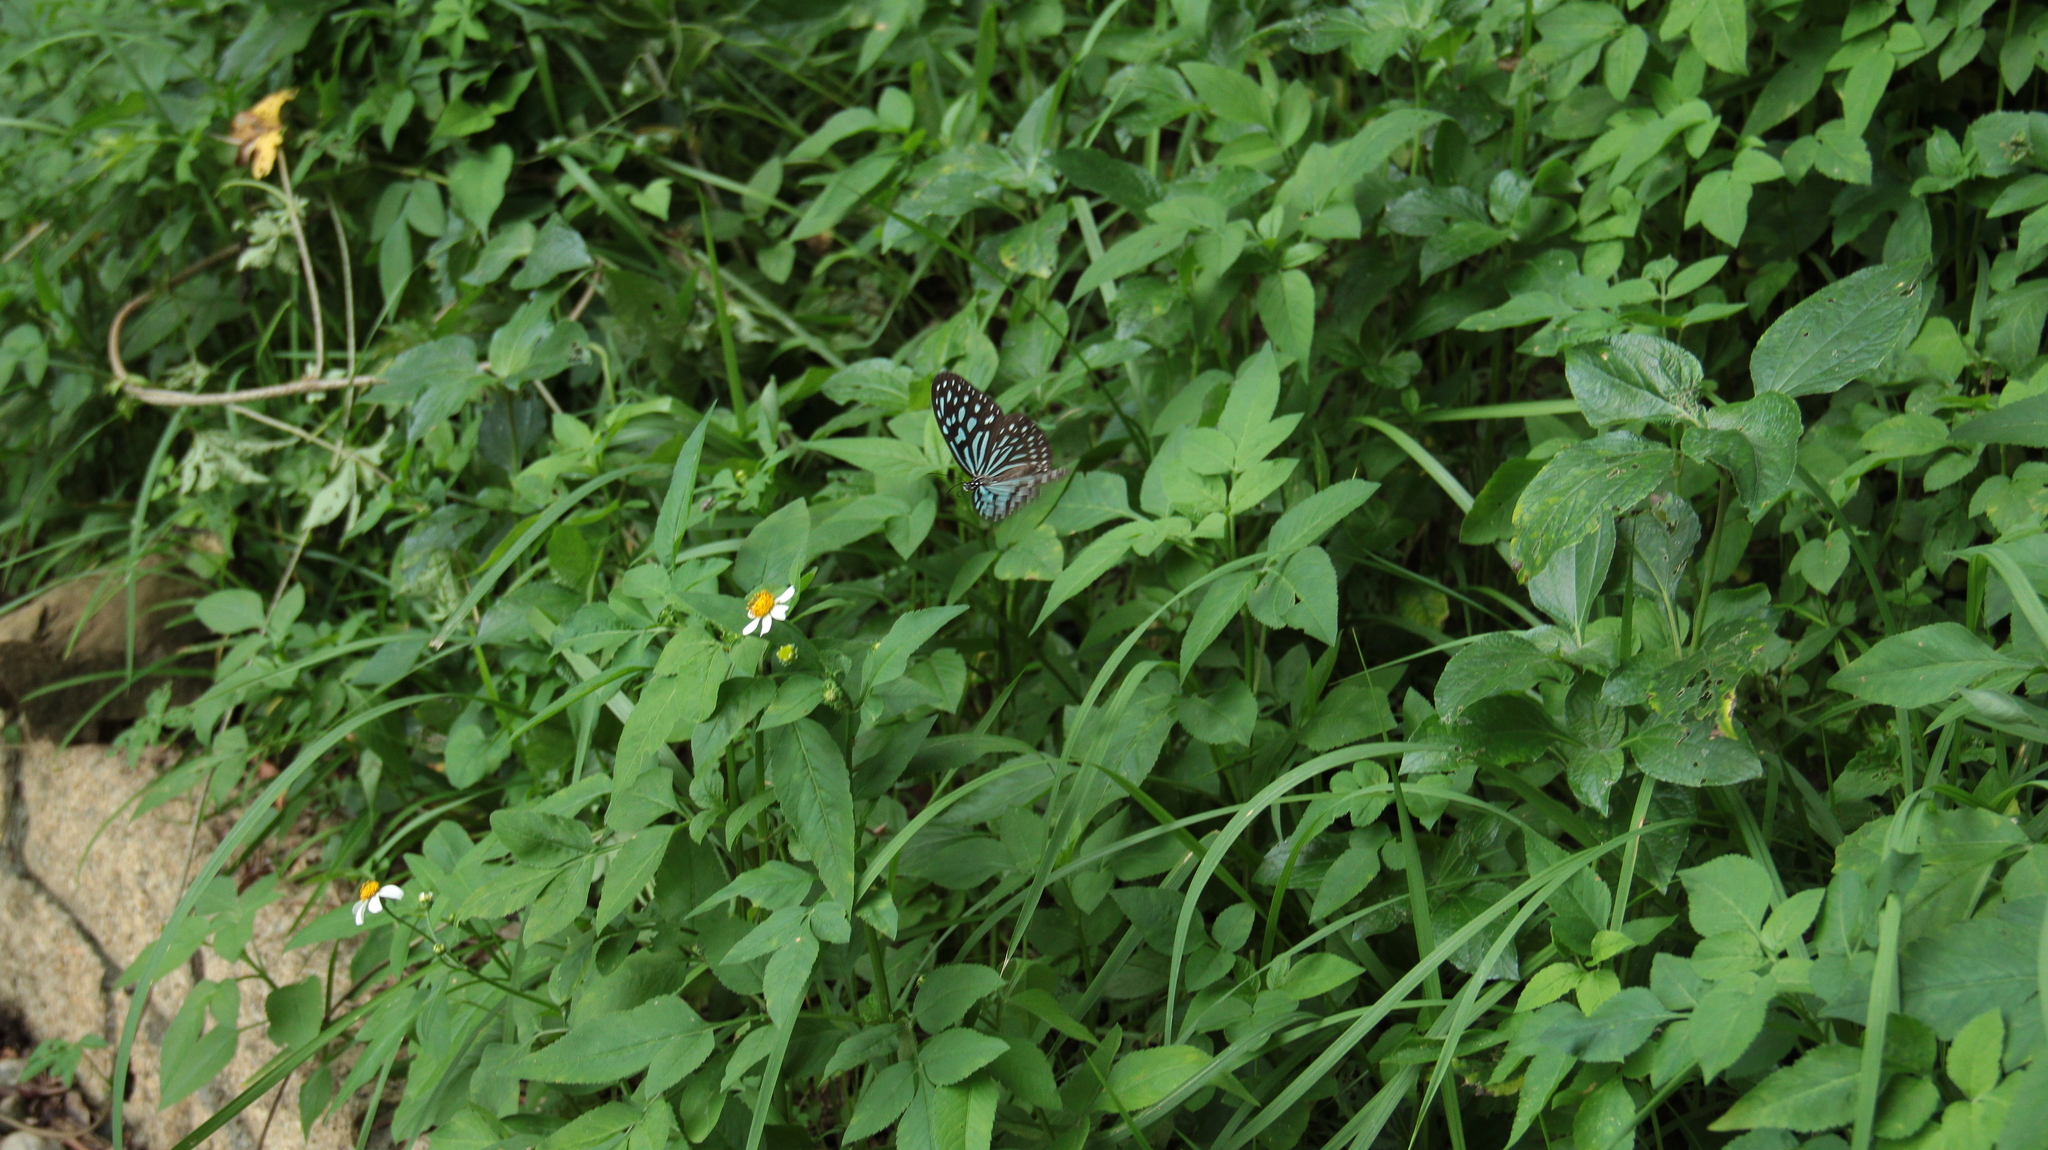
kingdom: Animalia
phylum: Arthropoda
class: Insecta
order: Lepidoptera
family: Nymphalidae
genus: Ideopsis
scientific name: Ideopsis similis
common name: Ceylon blue glassy tiger
